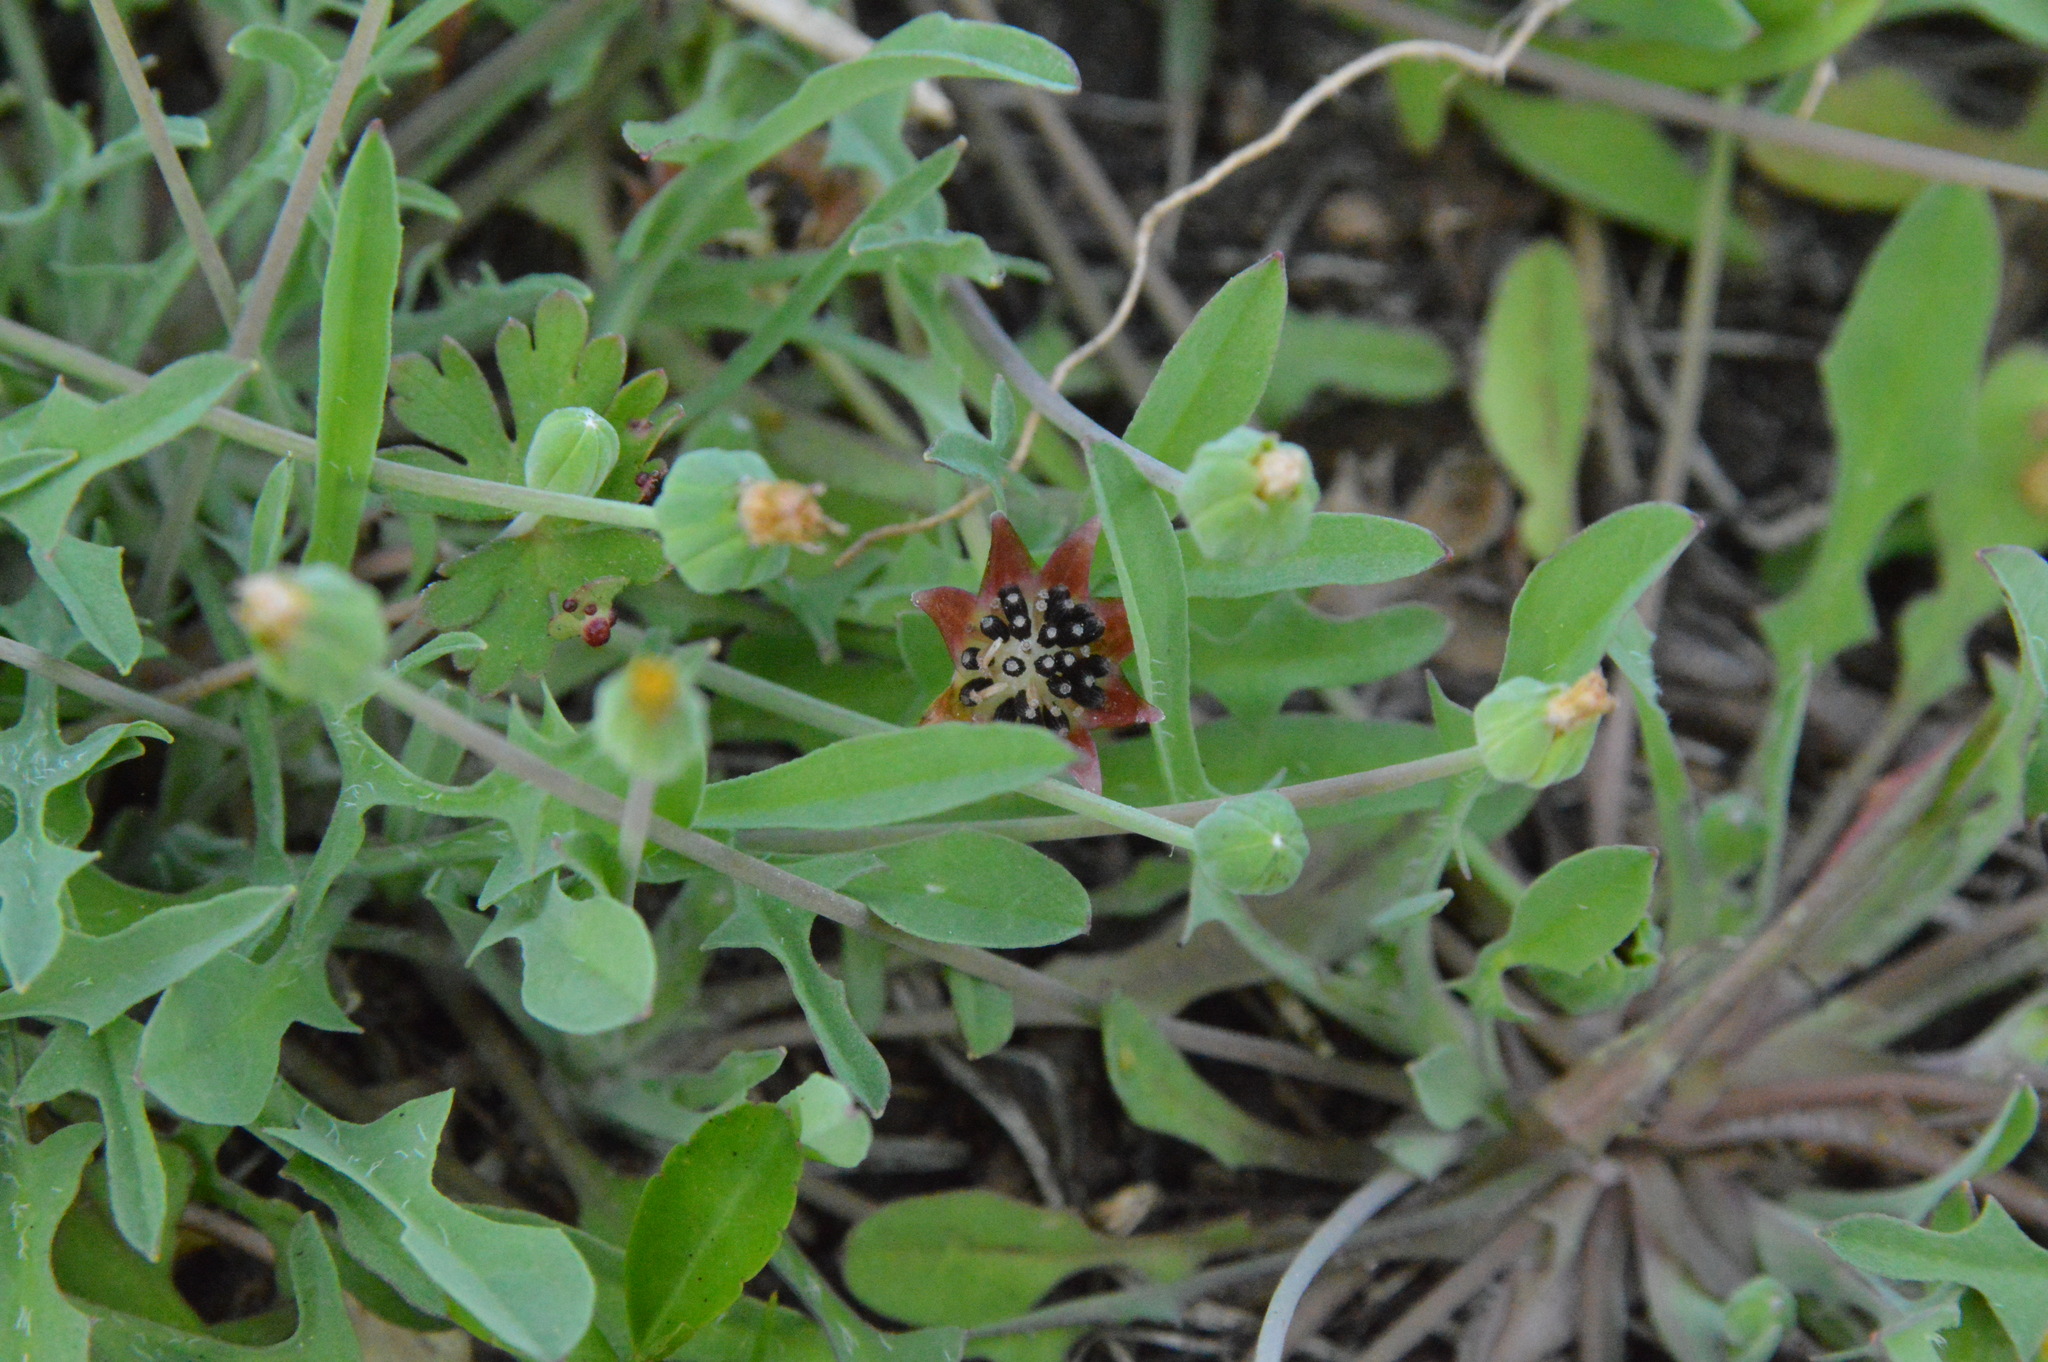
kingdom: Plantae
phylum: Tracheophyta
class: Magnoliopsida
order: Asterales
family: Asteraceae
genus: Krigia
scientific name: Krigia wrightii
